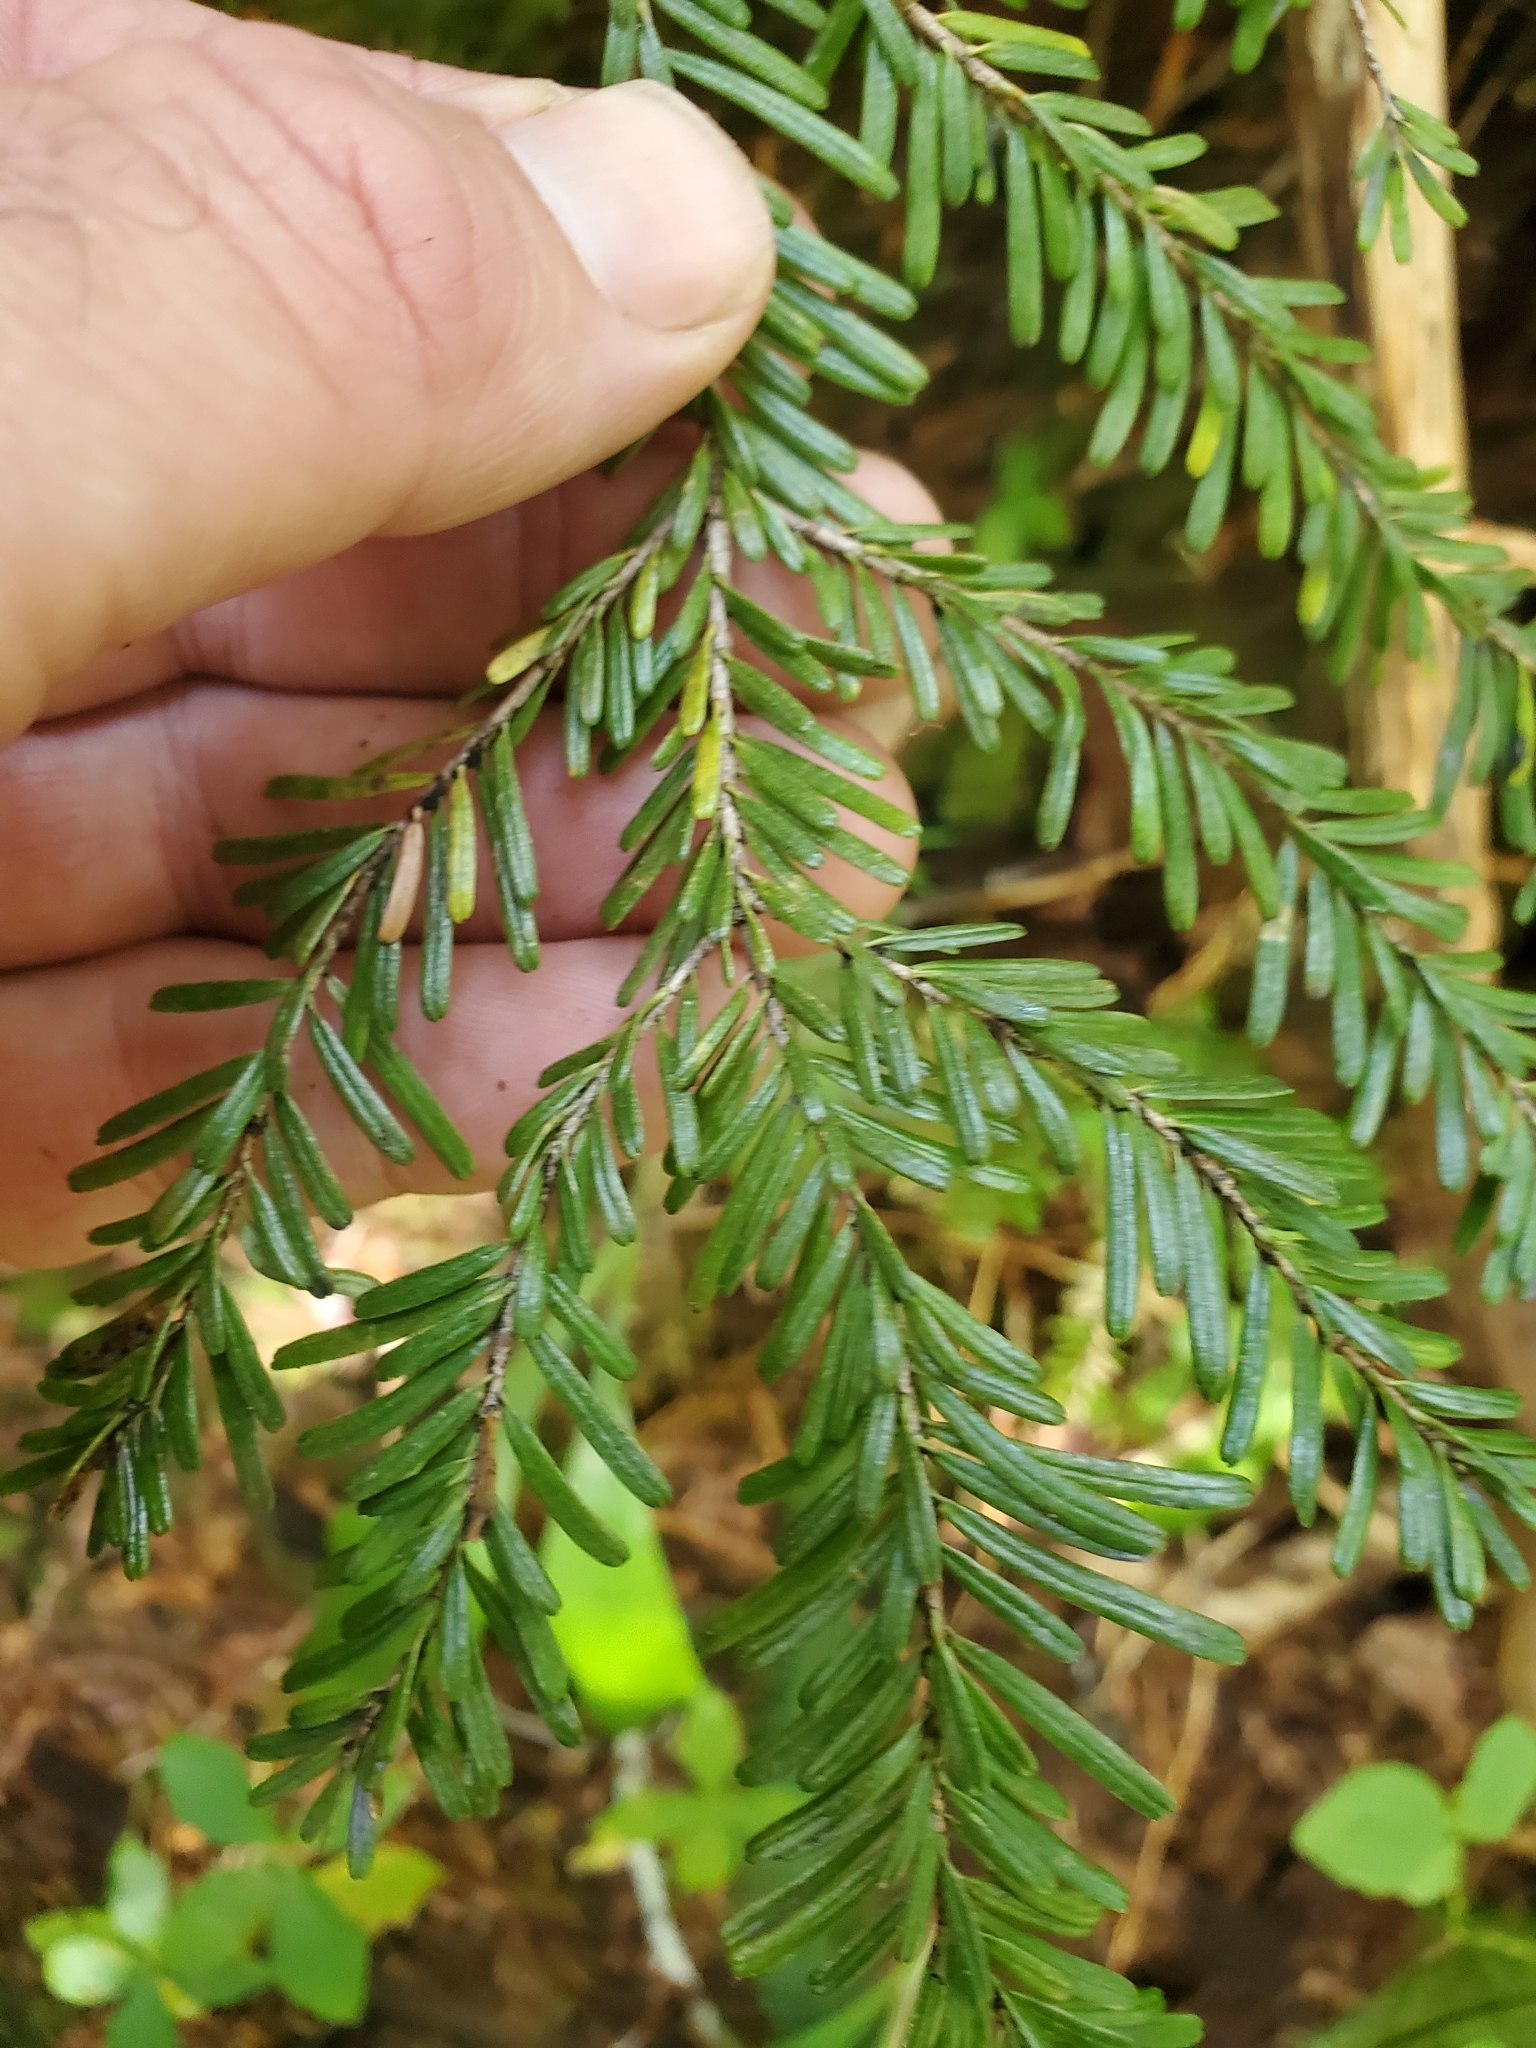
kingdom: Plantae
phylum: Tracheophyta
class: Pinopsida
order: Pinales
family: Pinaceae
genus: Tsuga
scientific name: Tsuga heterophylla
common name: Western hemlock
